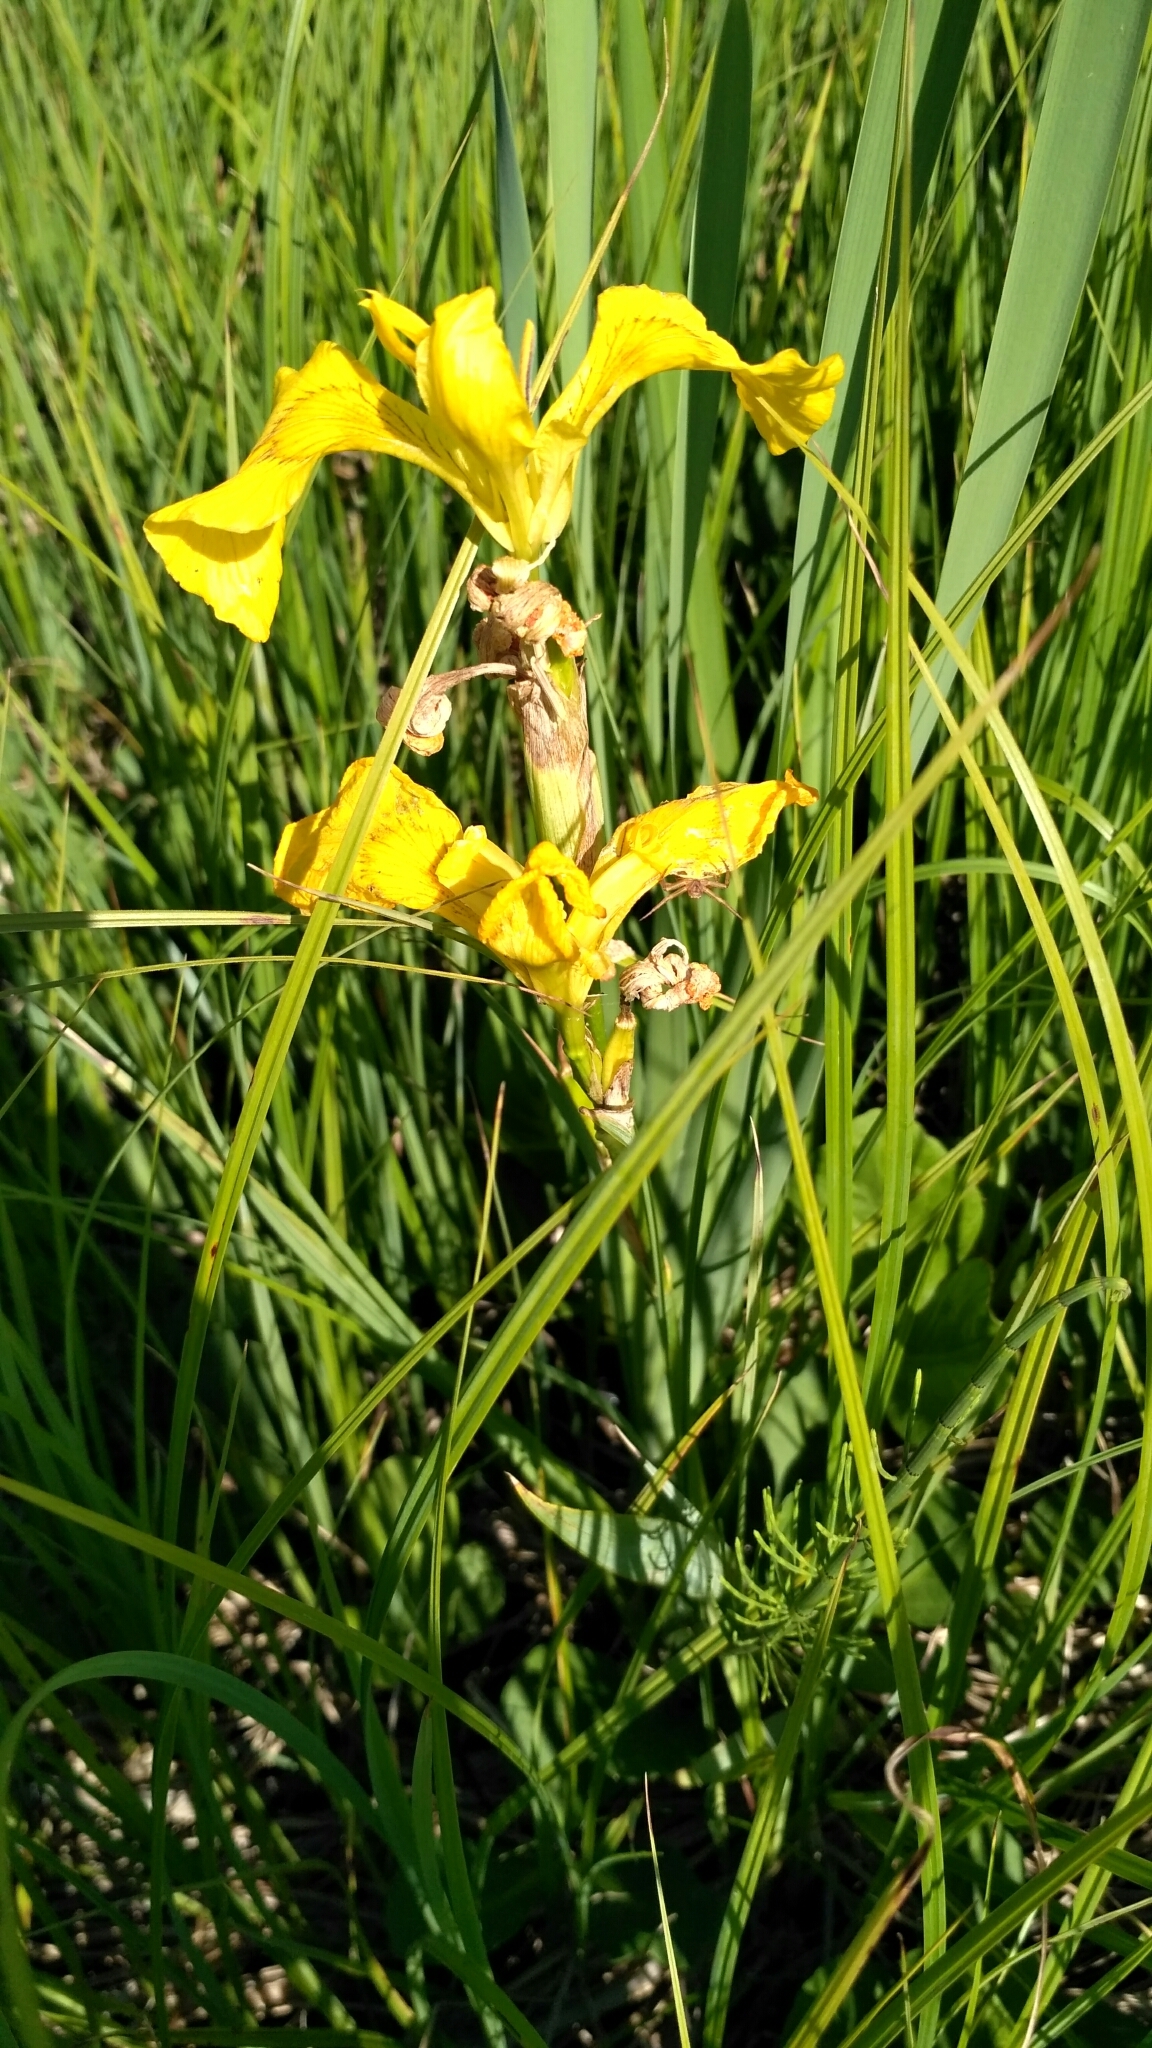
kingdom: Plantae
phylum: Tracheophyta
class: Liliopsida
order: Asparagales
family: Iridaceae
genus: Iris
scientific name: Iris pseudacorus
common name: Yellow flag
